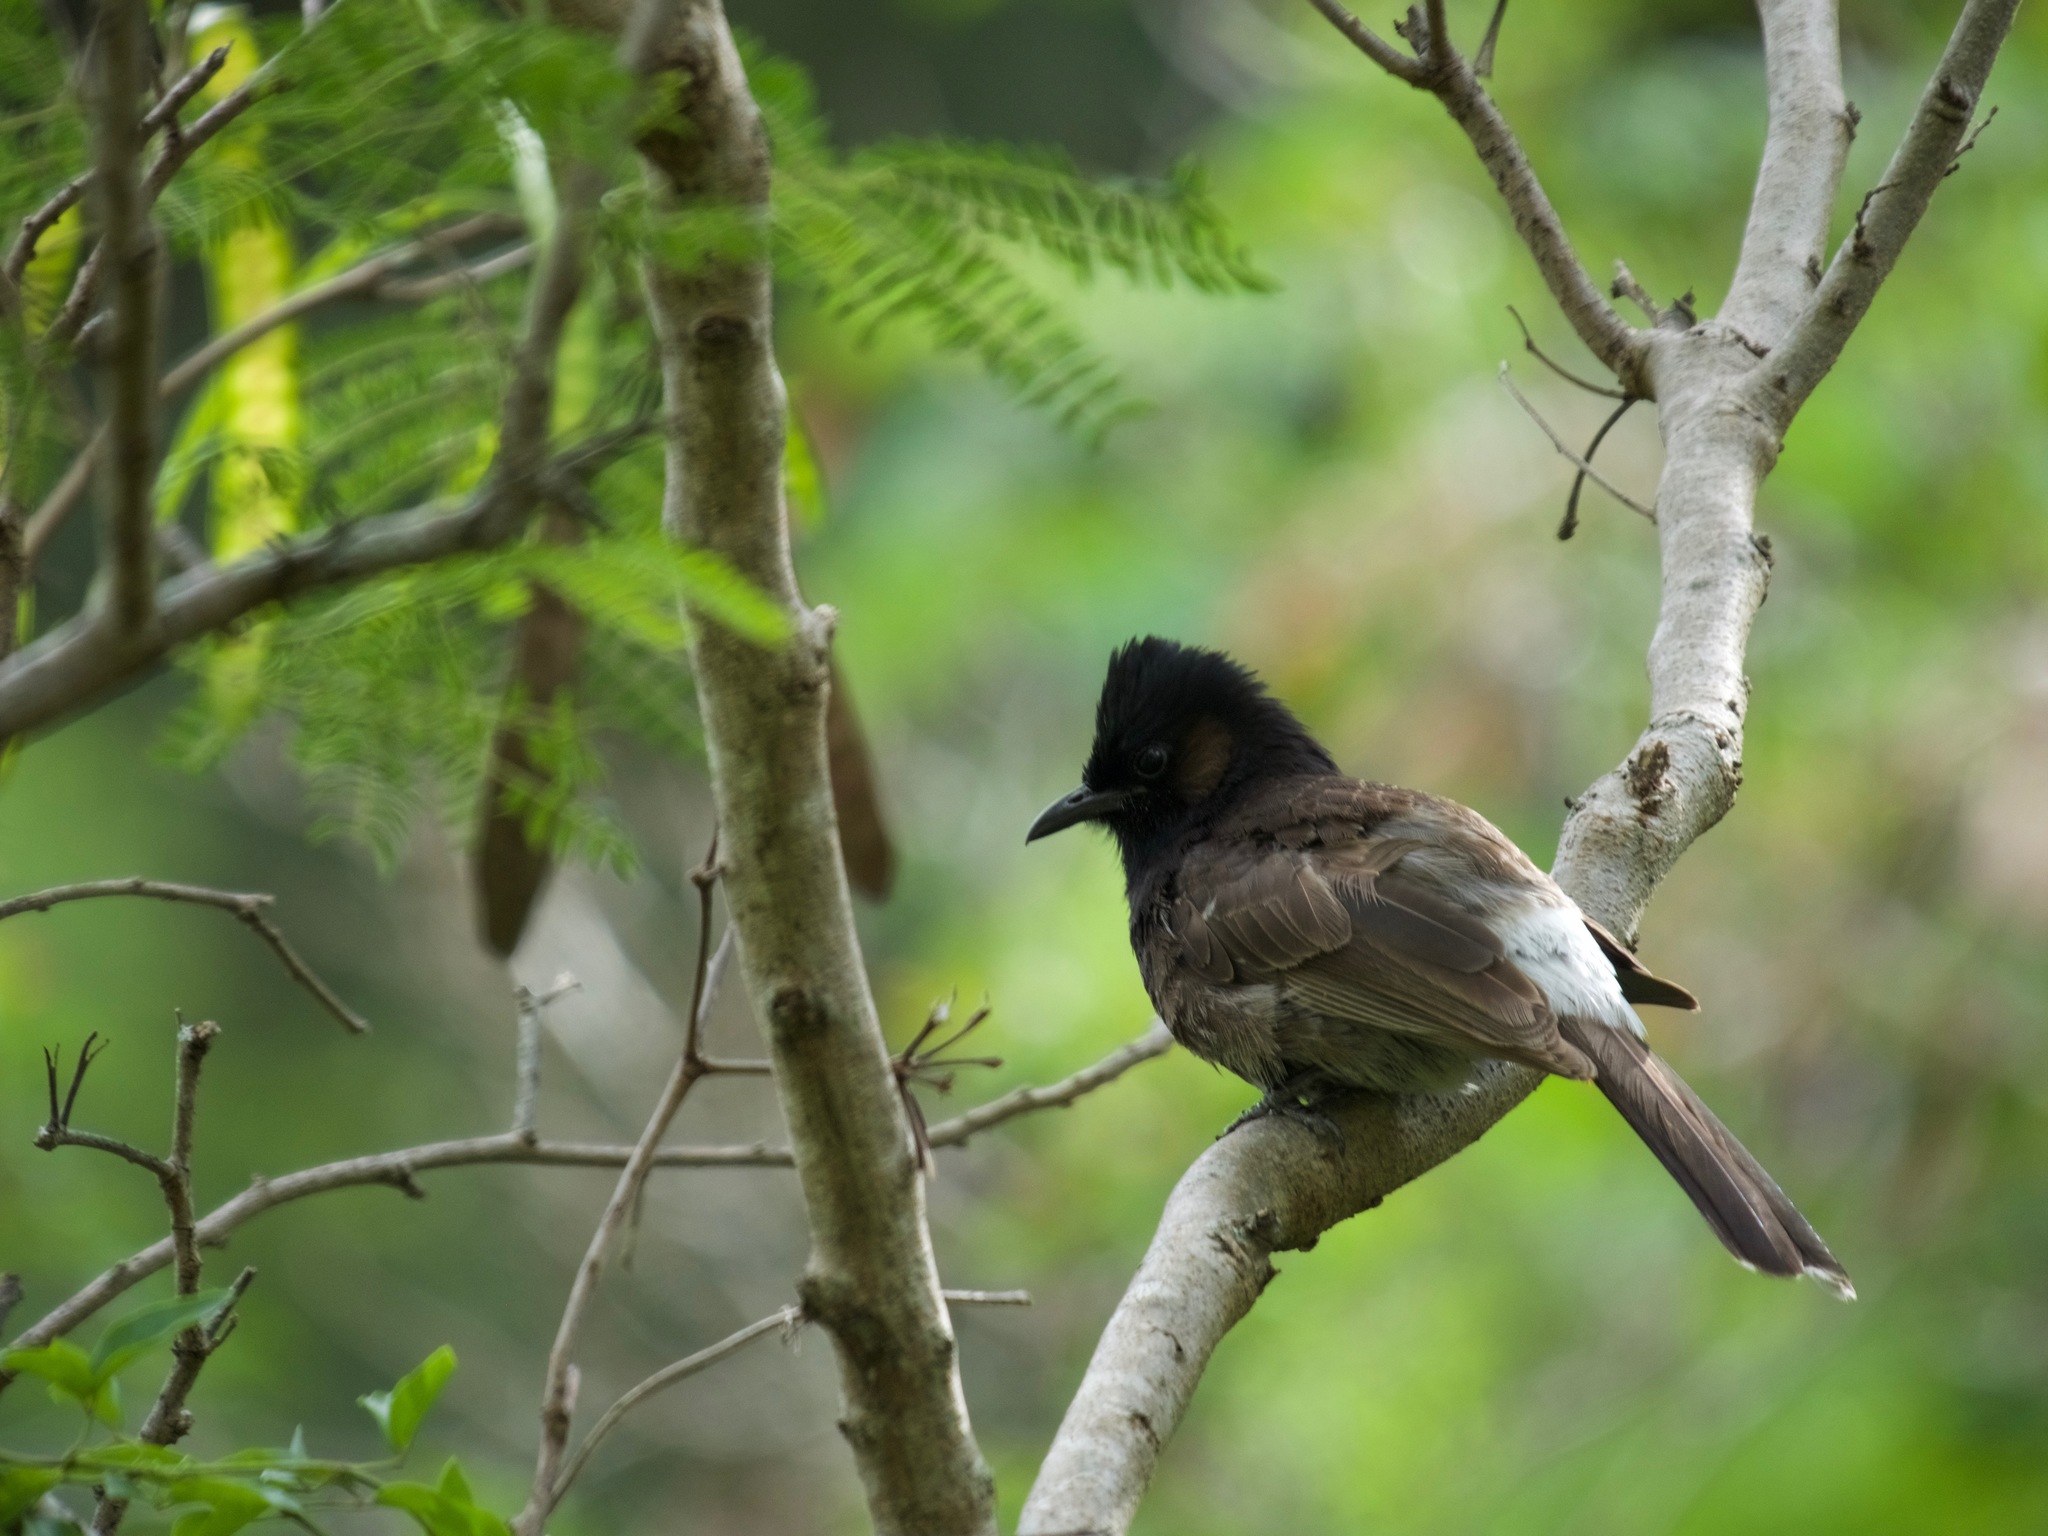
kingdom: Animalia
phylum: Chordata
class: Aves
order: Passeriformes
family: Pycnonotidae
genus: Pycnonotus
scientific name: Pycnonotus cafer
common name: Red-vented bulbul
